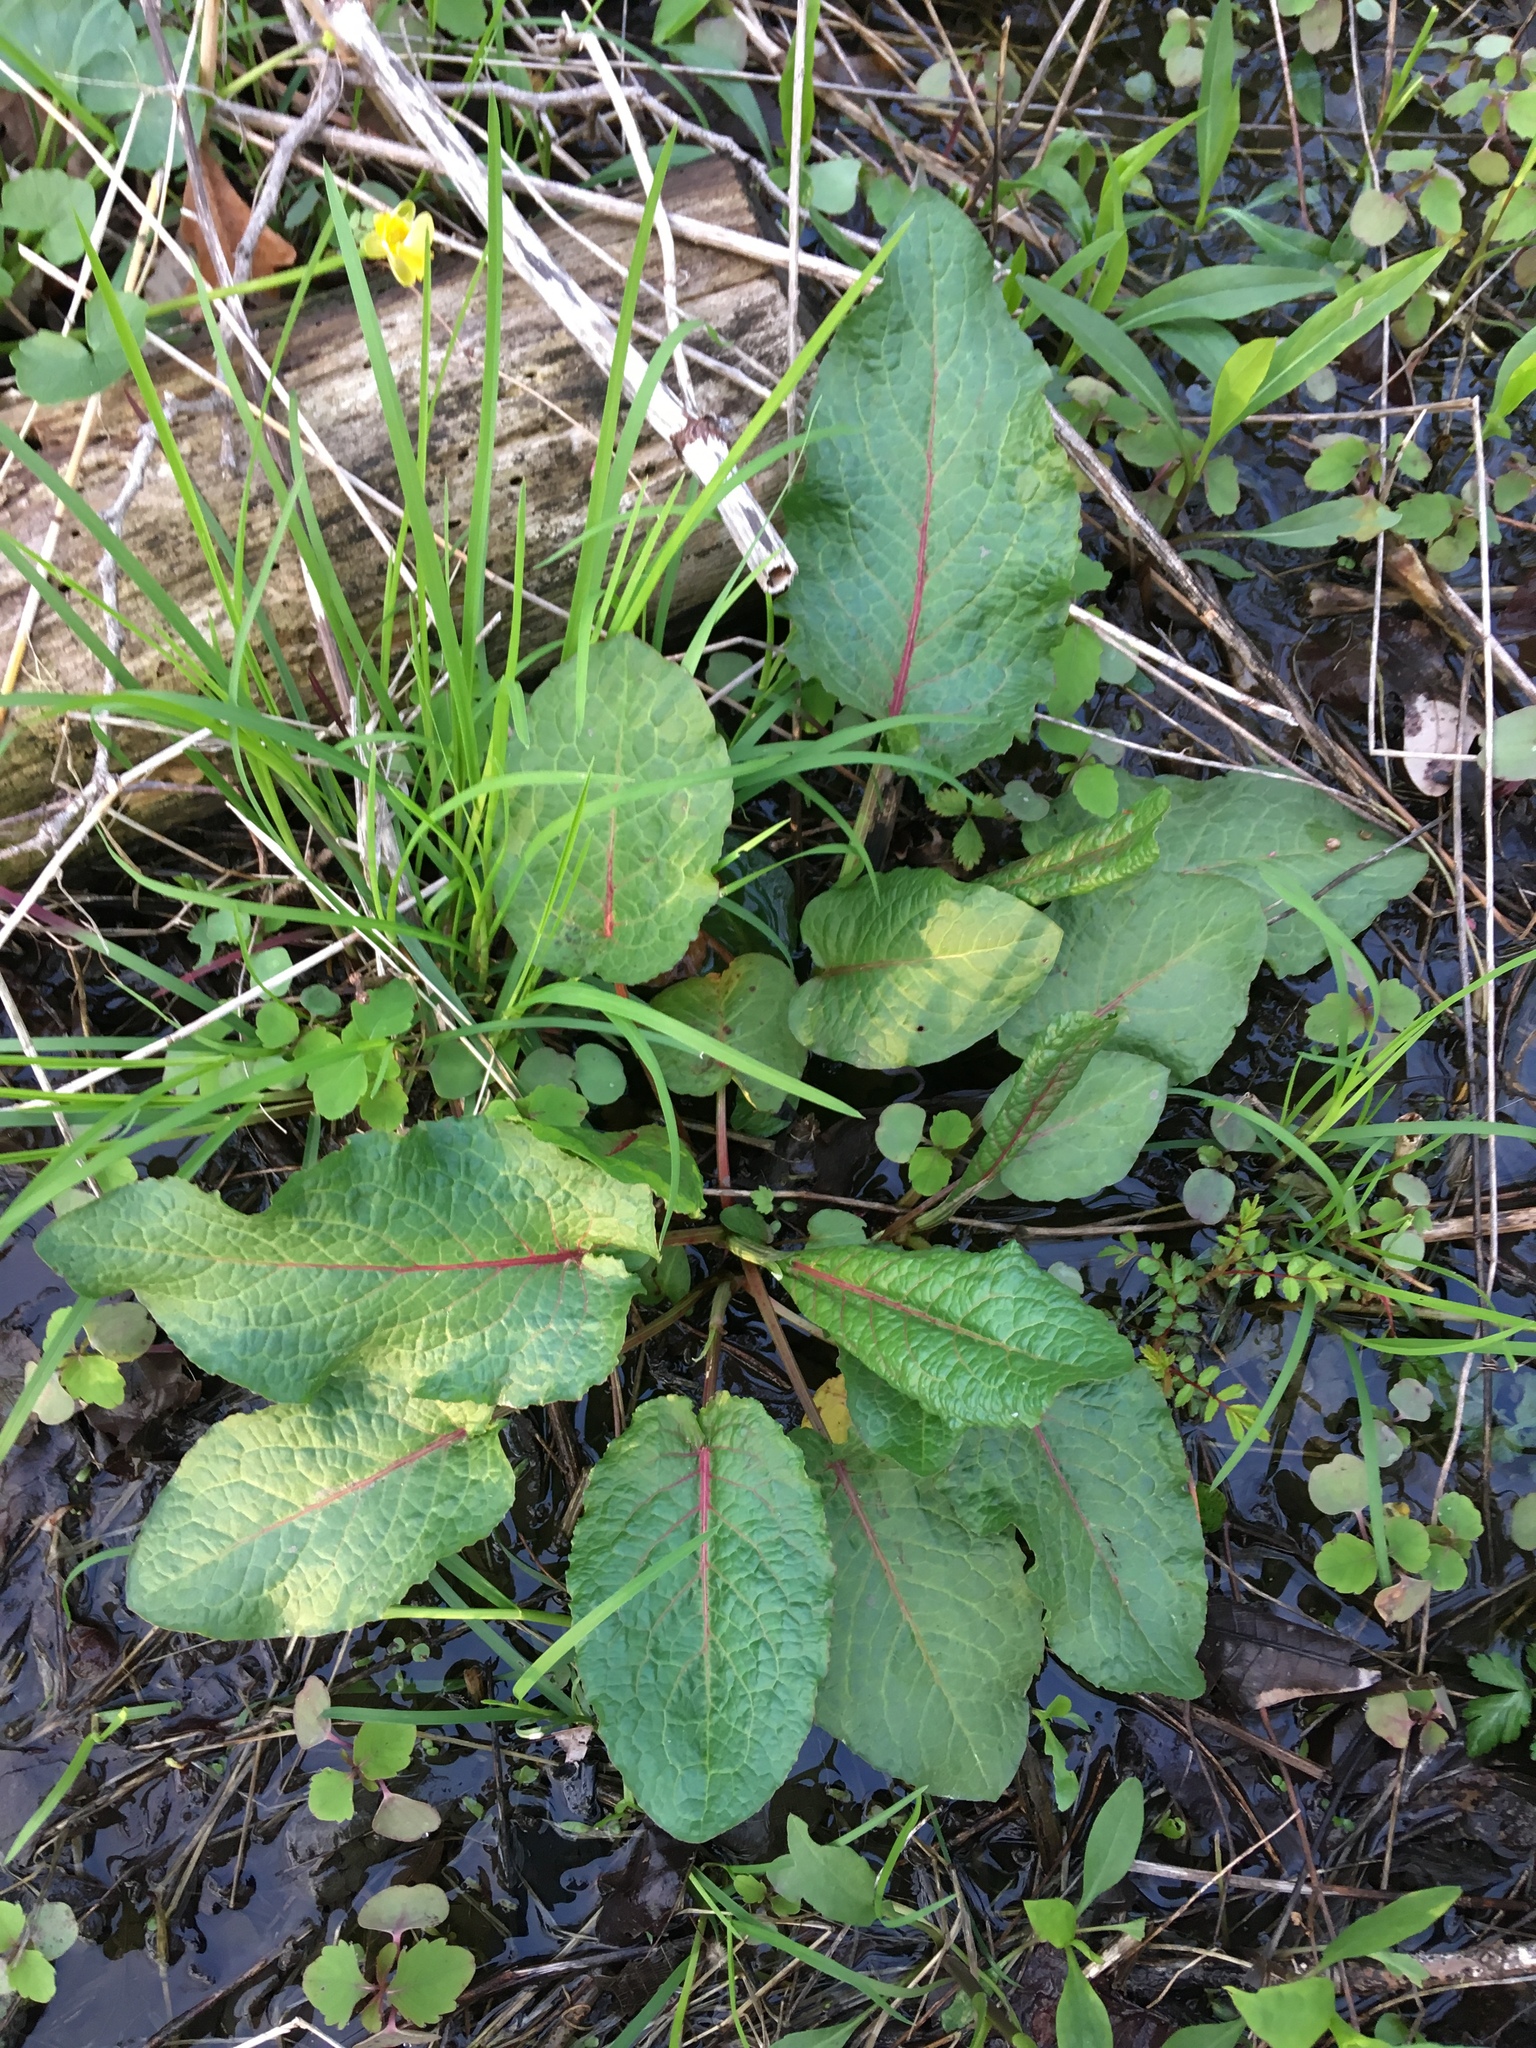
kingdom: Plantae
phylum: Tracheophyta
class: Magnoliopsida
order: Caryophyllales
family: Polygonaceae
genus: Rumex
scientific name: Rumex obtusifolius
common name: Bitter dock
